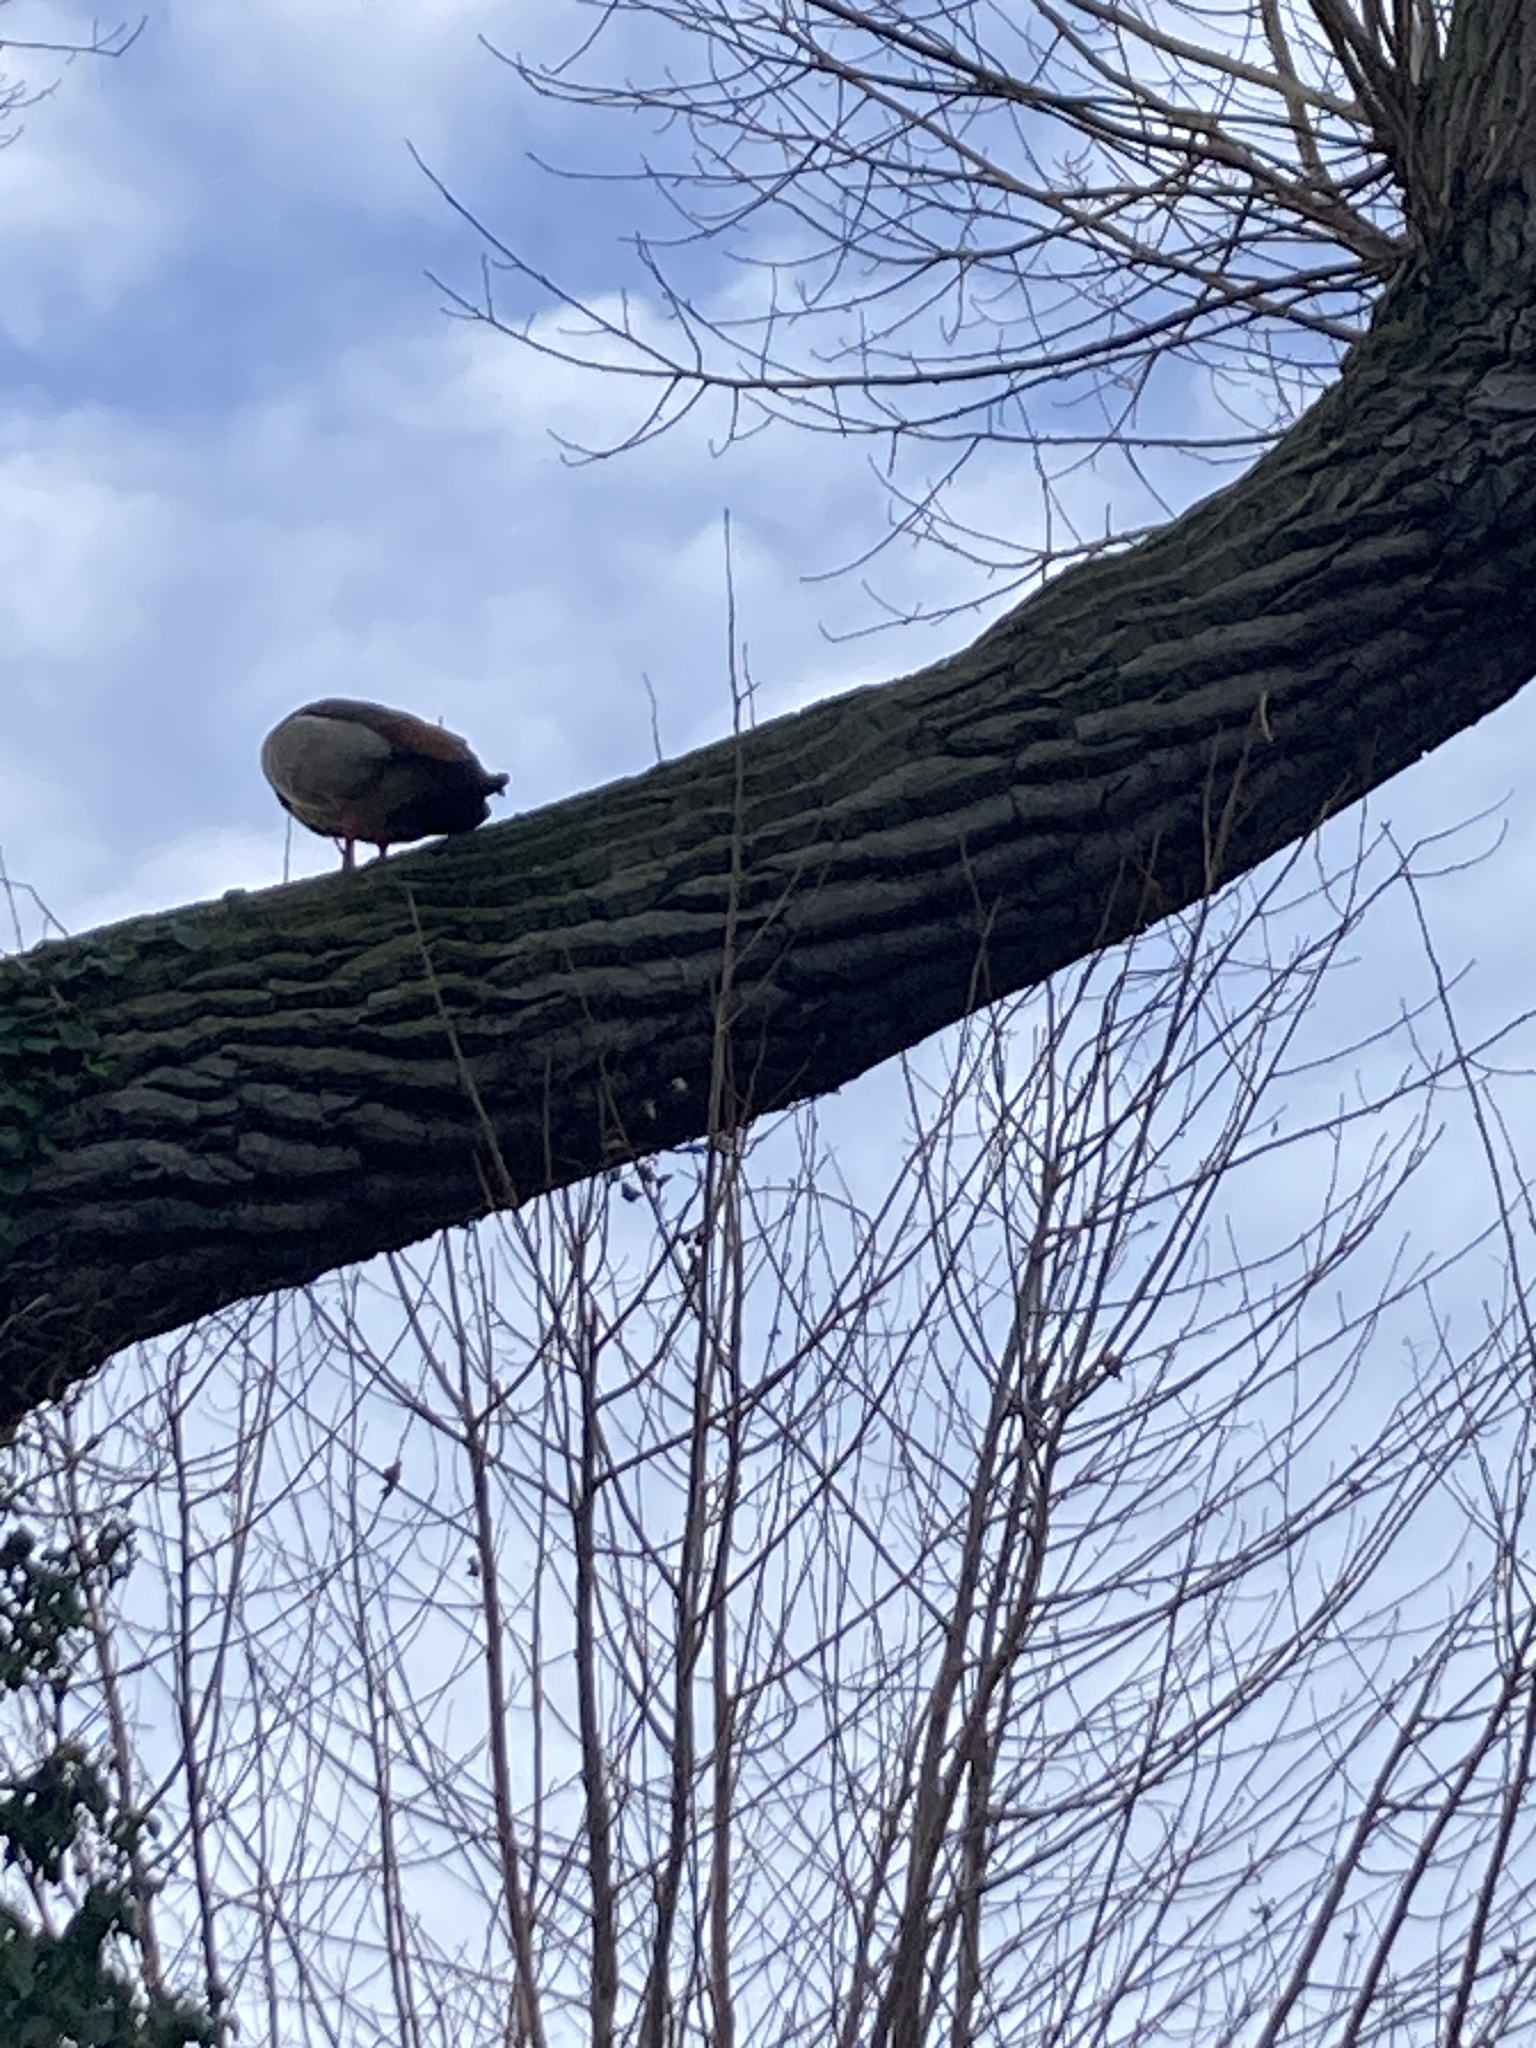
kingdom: Animalia
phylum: Chordata
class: Aves
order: Anseriformes
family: Anatidae
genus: Alopochen
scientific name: Alopochen aegyptiaca
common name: Egyptian goose
